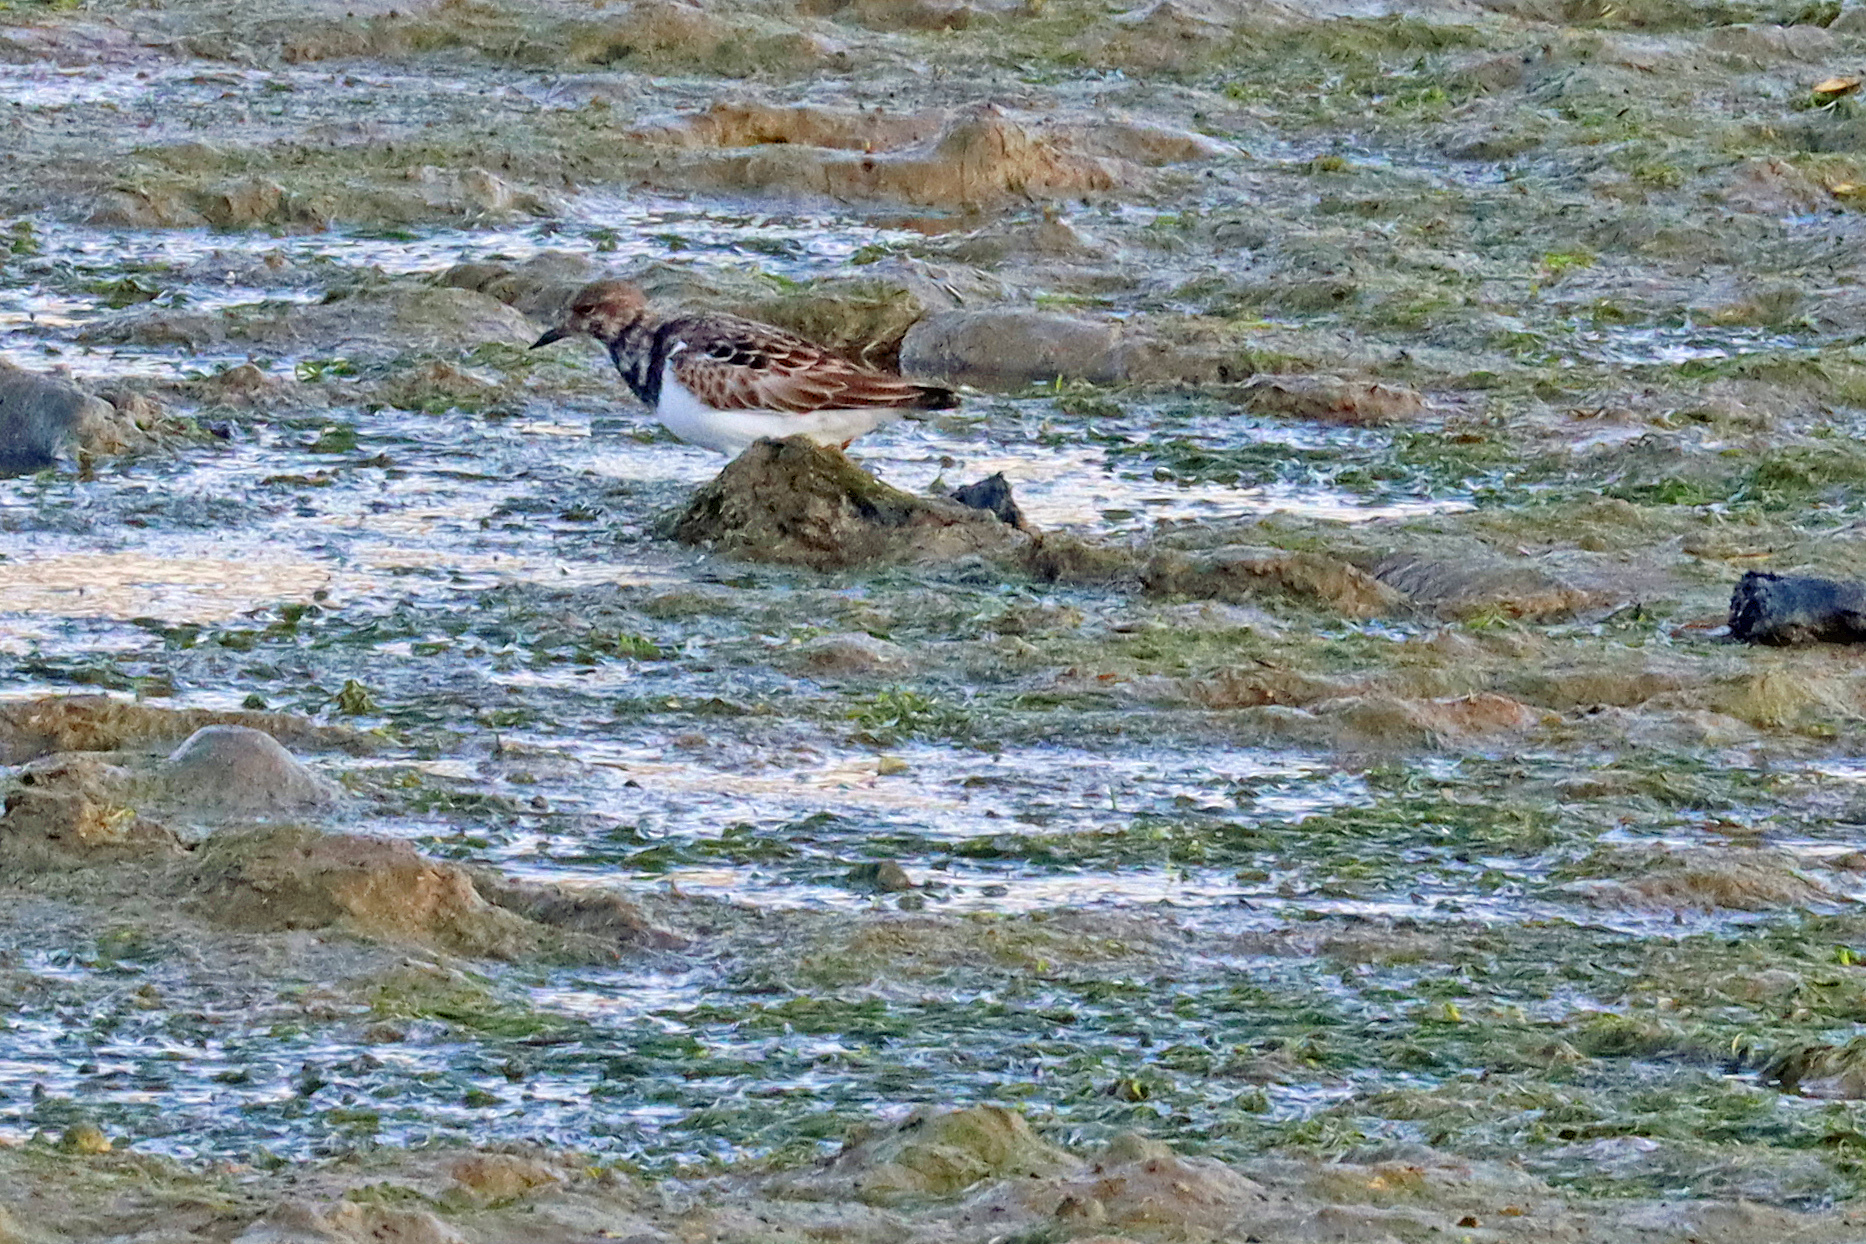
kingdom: Animalia
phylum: Chordata
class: Aves
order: Charadriiformes
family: Scolopacidae
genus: Arenaria
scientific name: Arenaria interpres
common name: Ruddy turnstone
